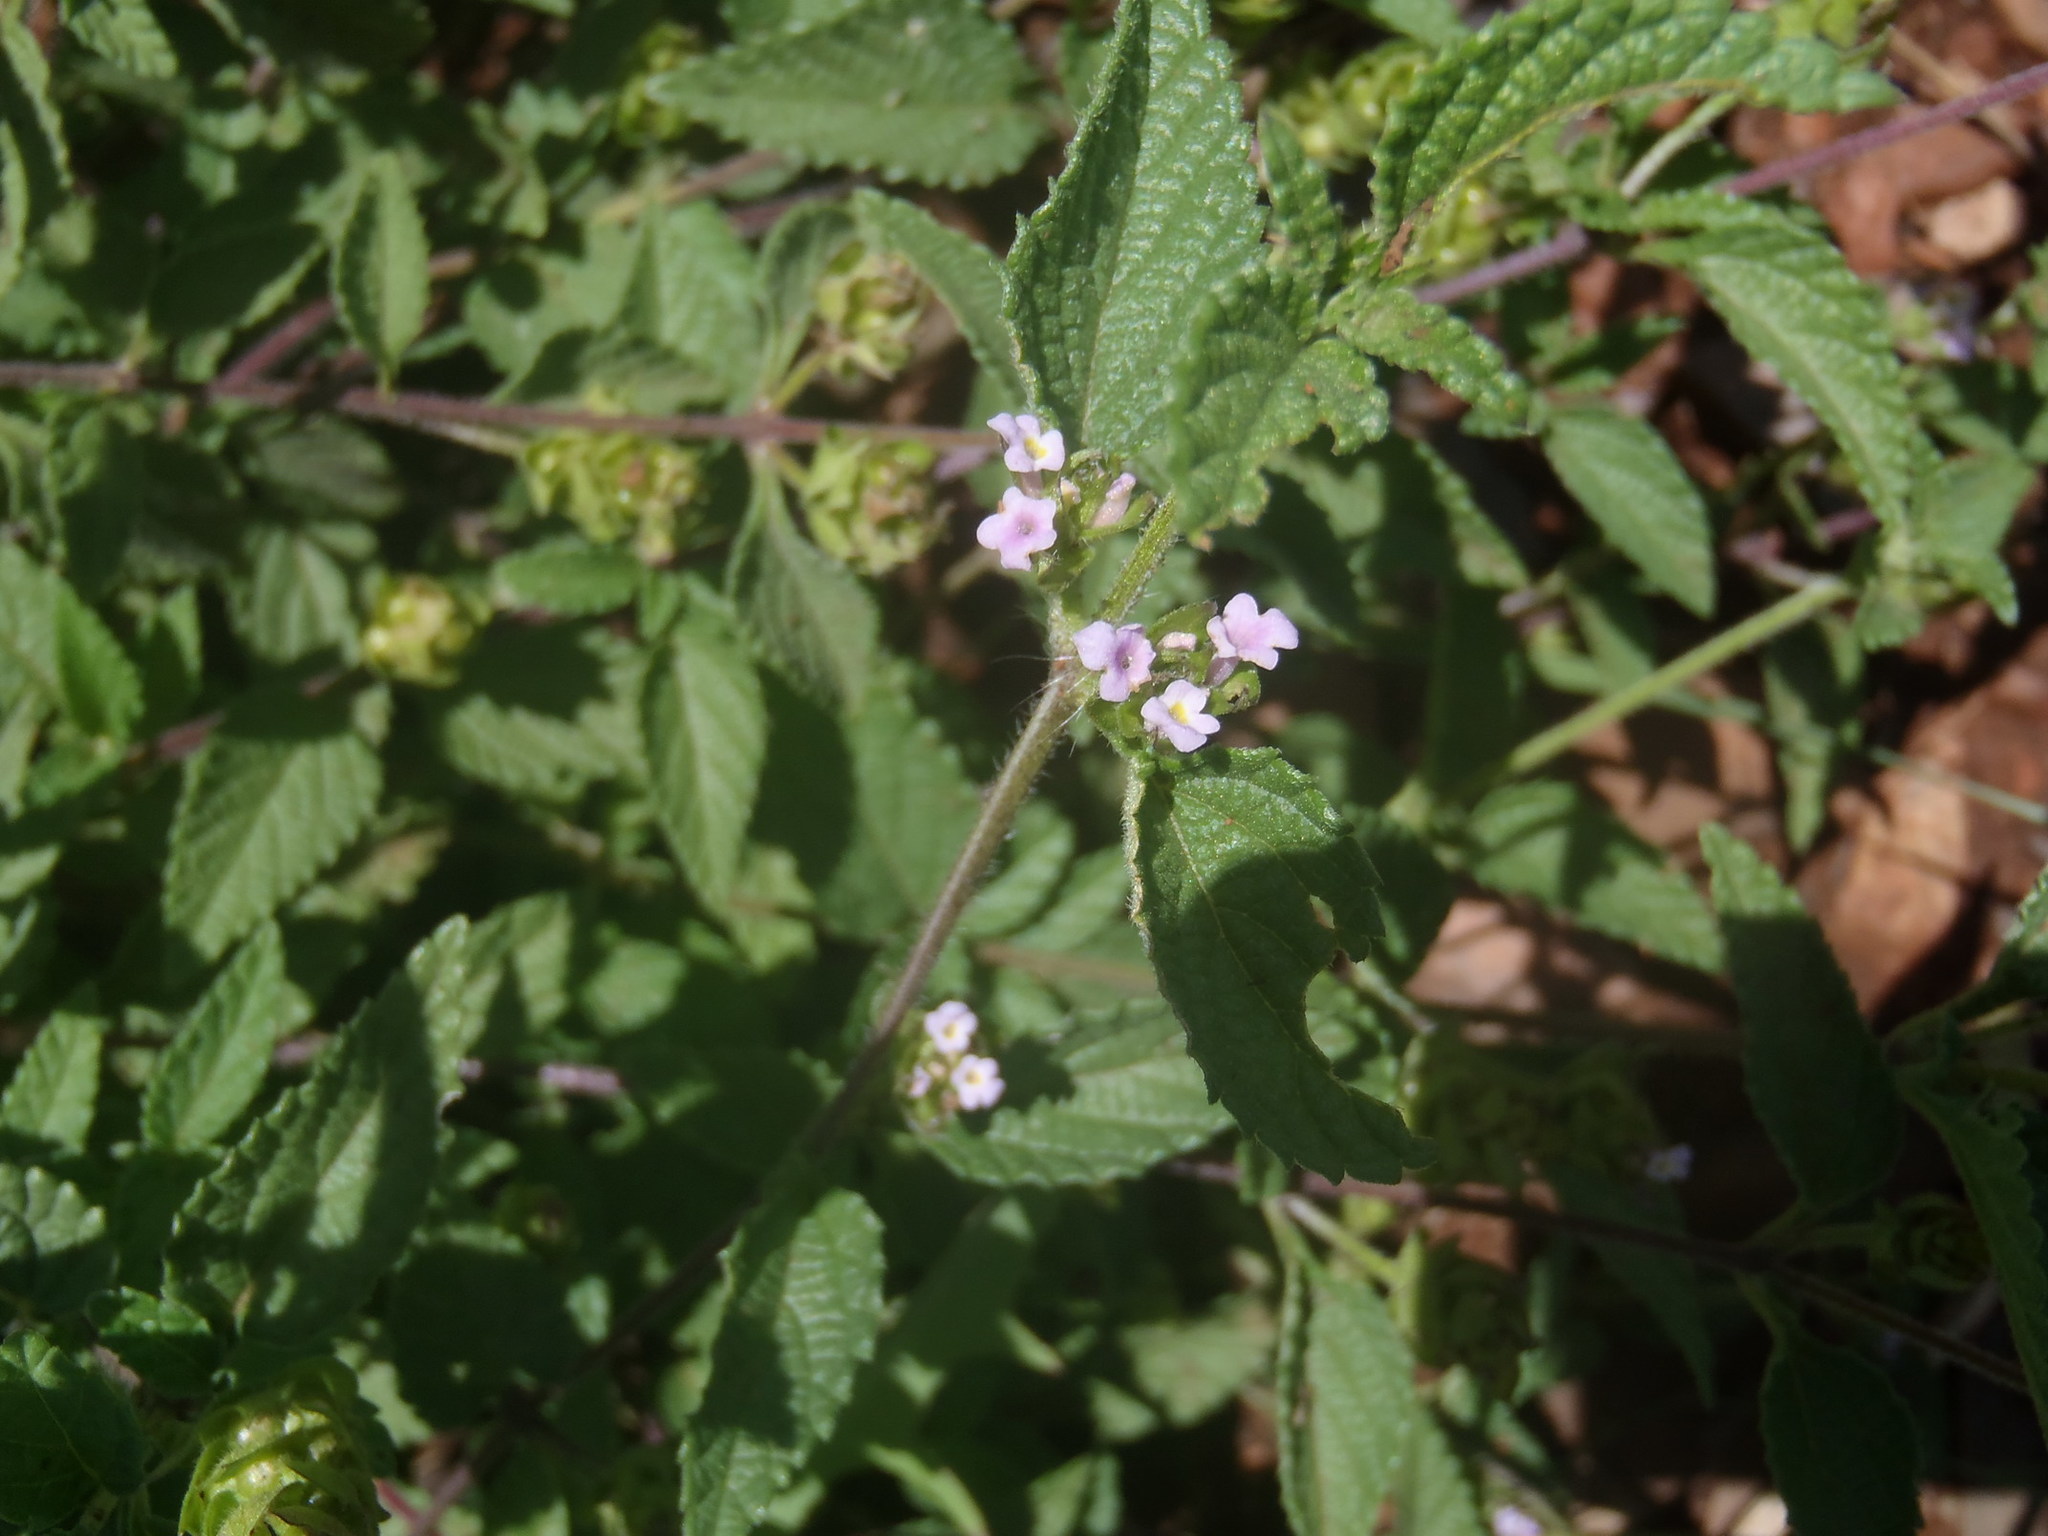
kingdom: Plantae
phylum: Tracheophyta
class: Magnoliopsida
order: Lamiales
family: Verbenaceae
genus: Lantana
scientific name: Lantana rugosa
